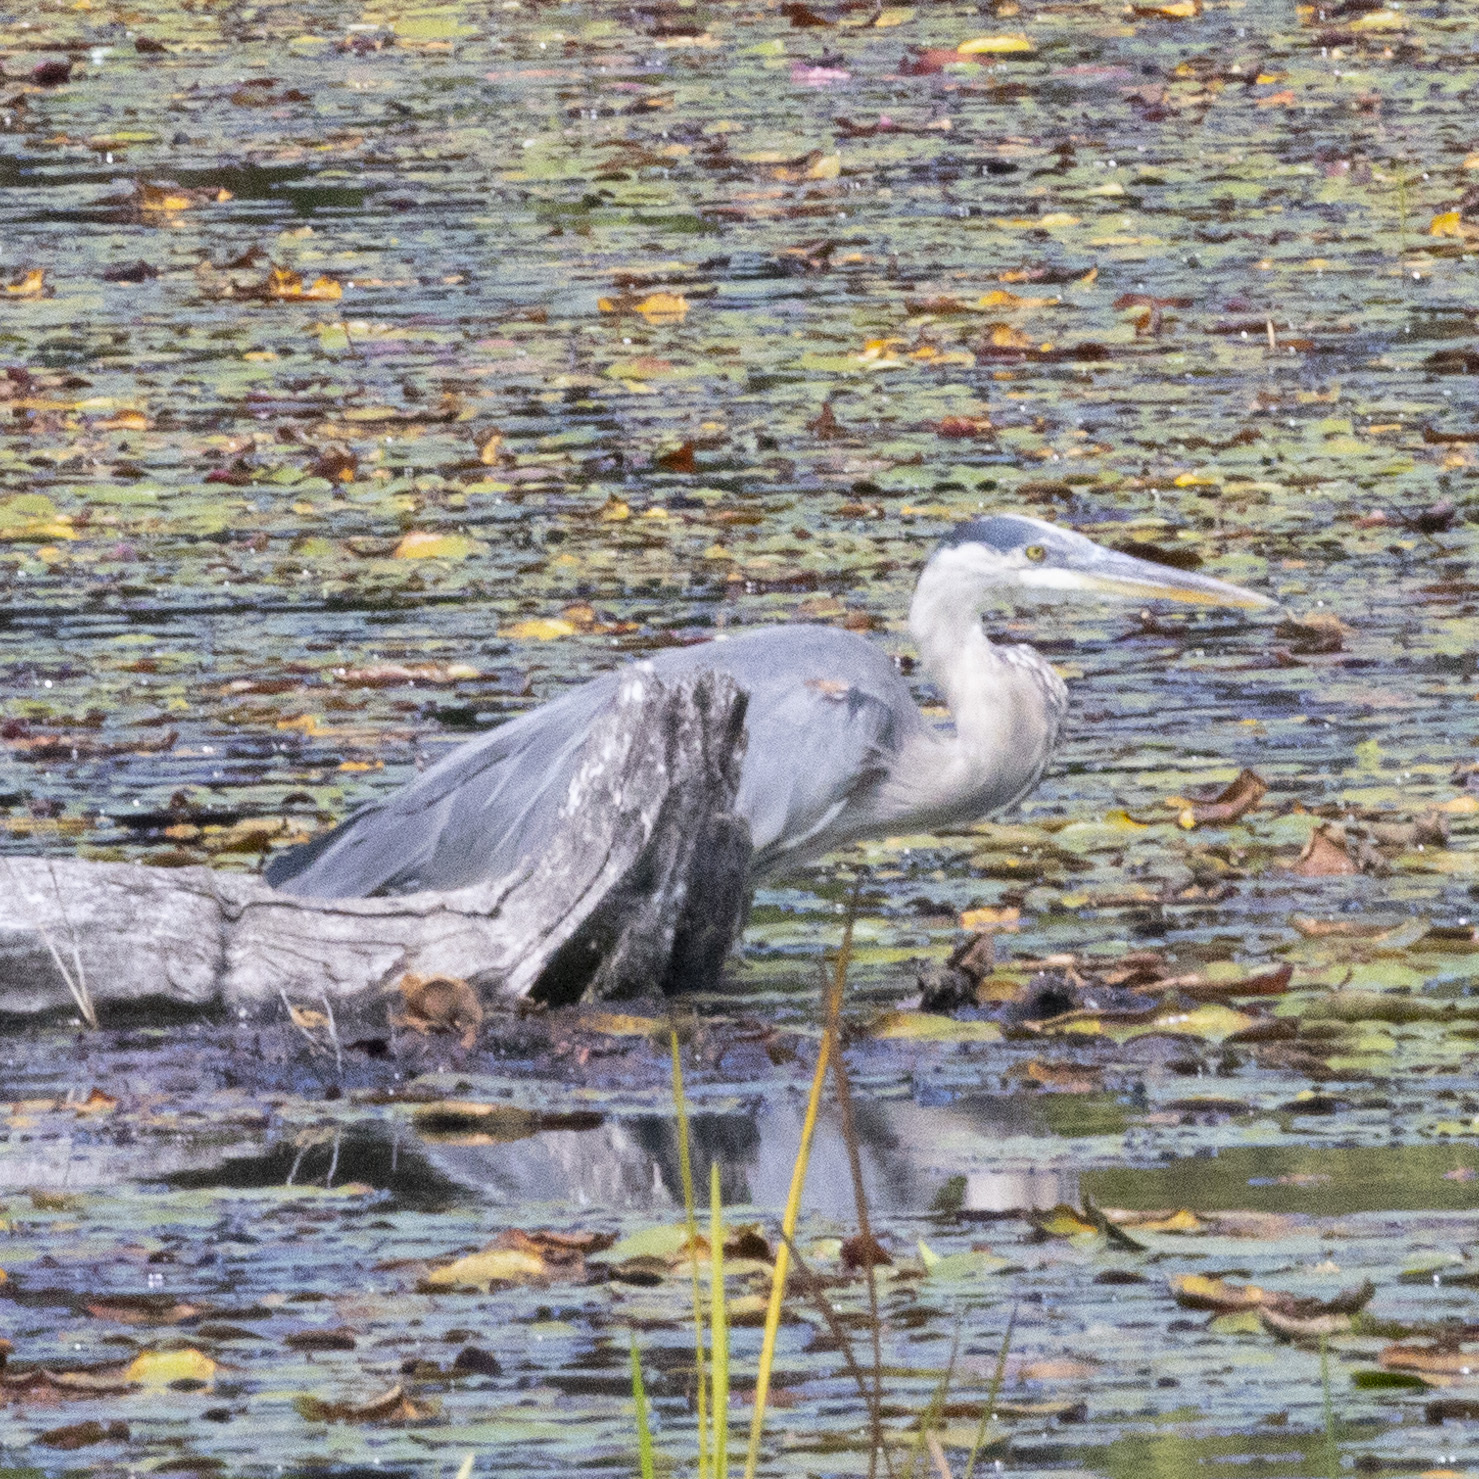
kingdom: Animalia
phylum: Chordata
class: Aves
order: Pelecaniformes
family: Ardeidae
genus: Ardea
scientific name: Ardea herodias
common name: Great blue heron
